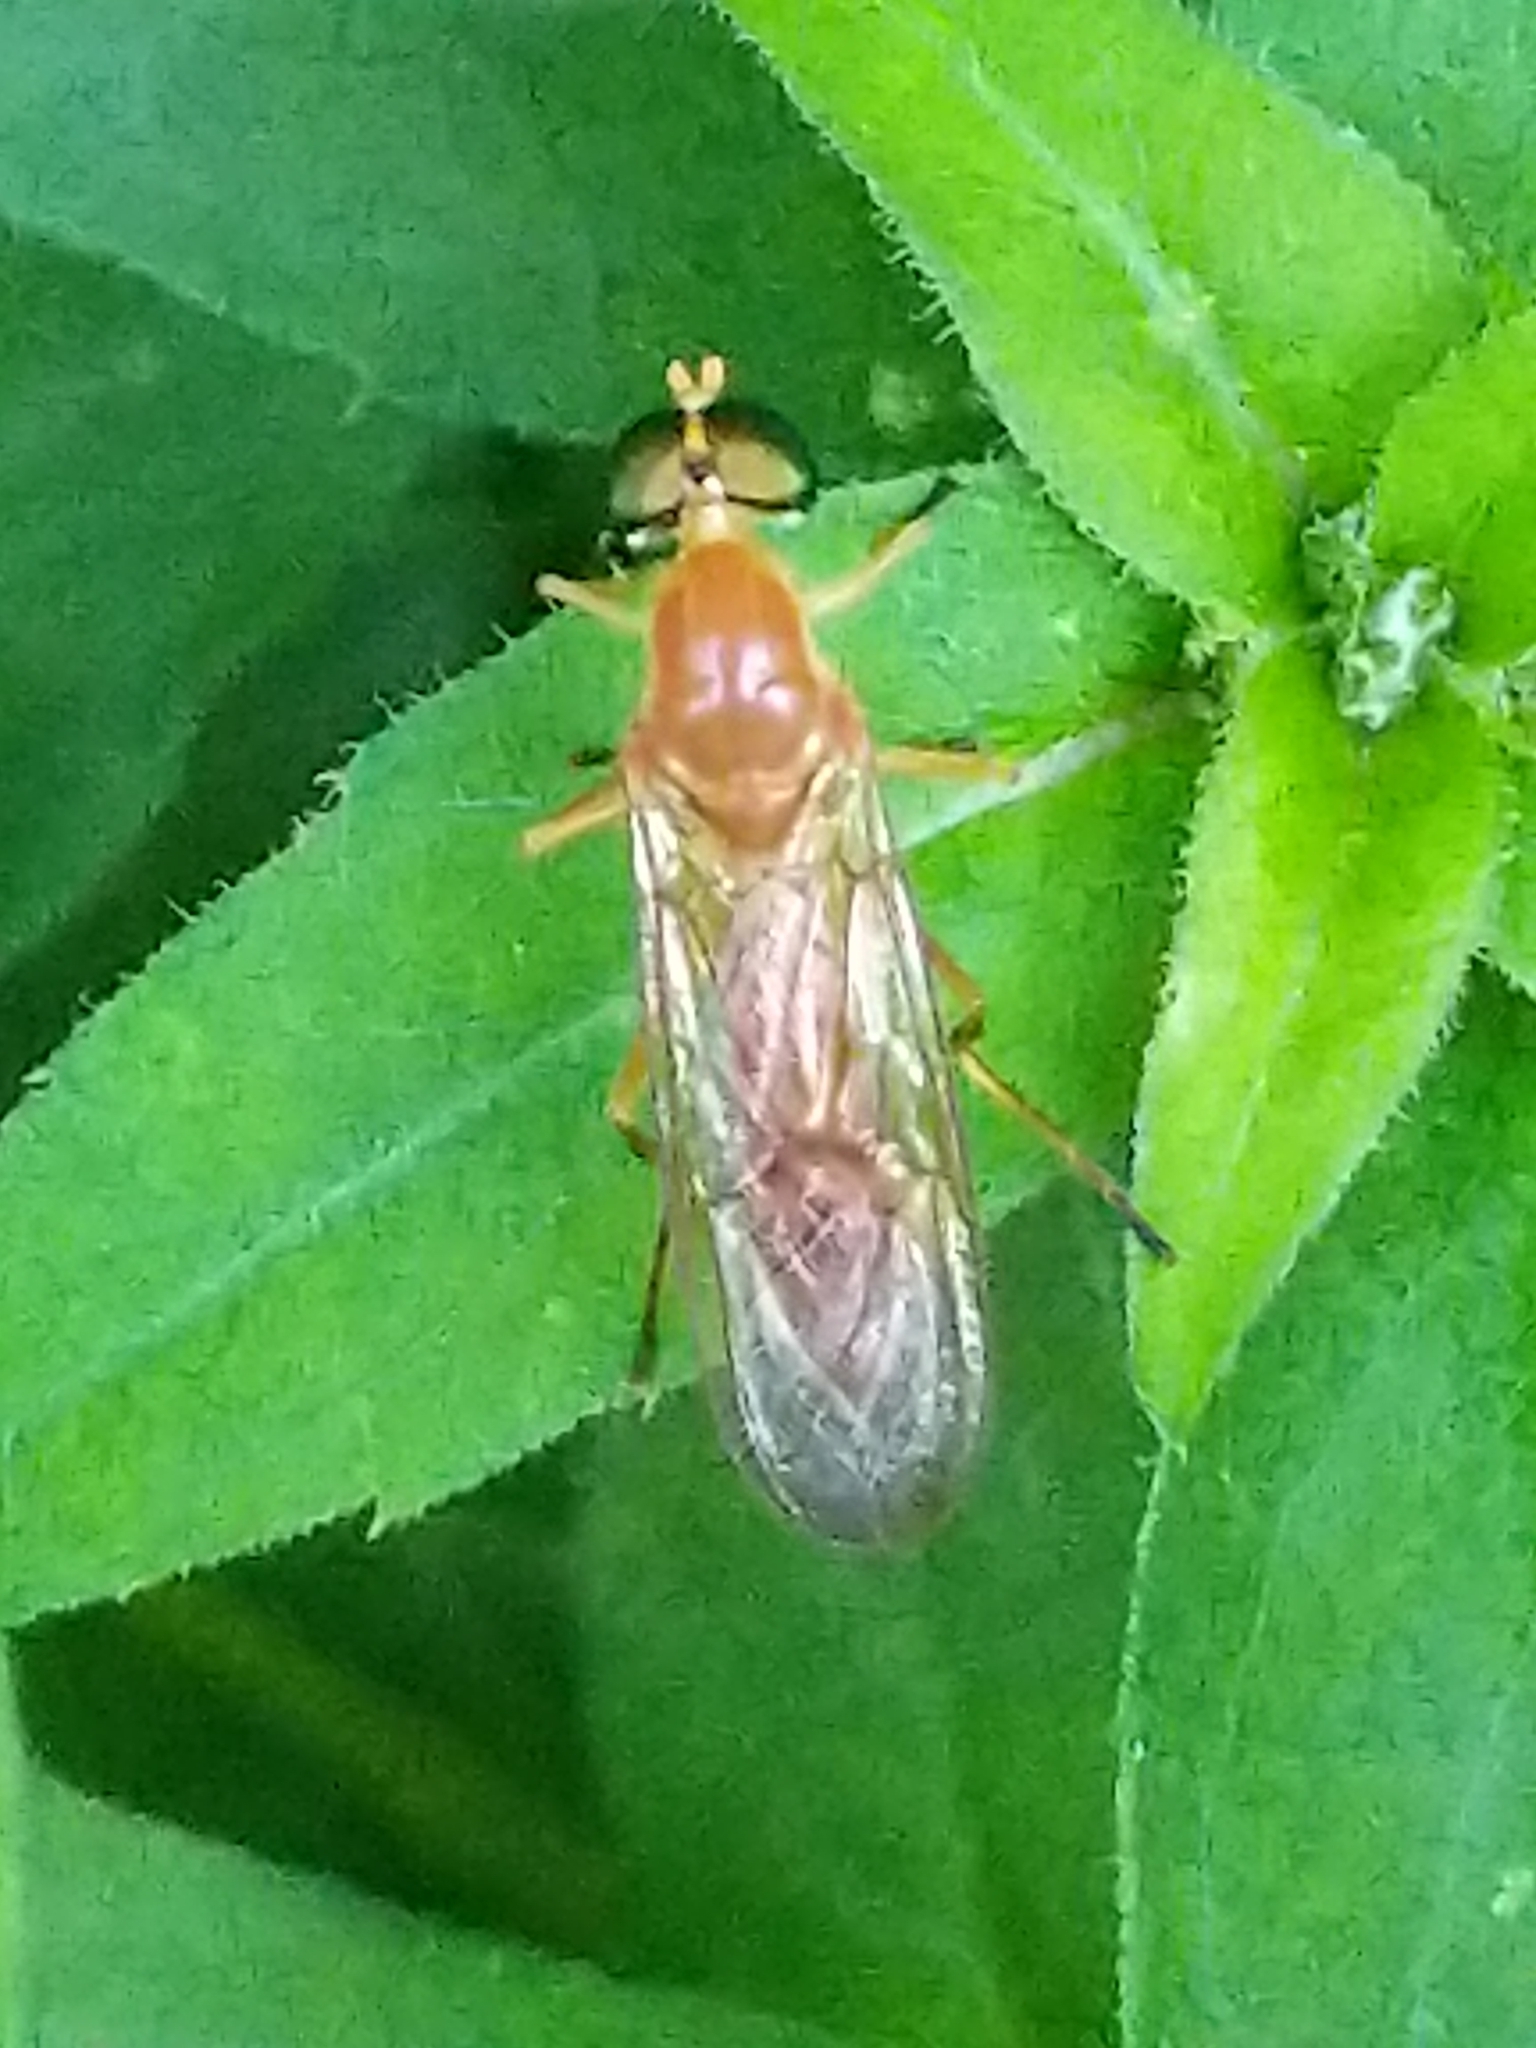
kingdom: Animalia
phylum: Arthropoda
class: Insecta
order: Diptera
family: Stratiomyidae
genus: Ptecticus
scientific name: Ptecticus trivittatus
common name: Compost fly
